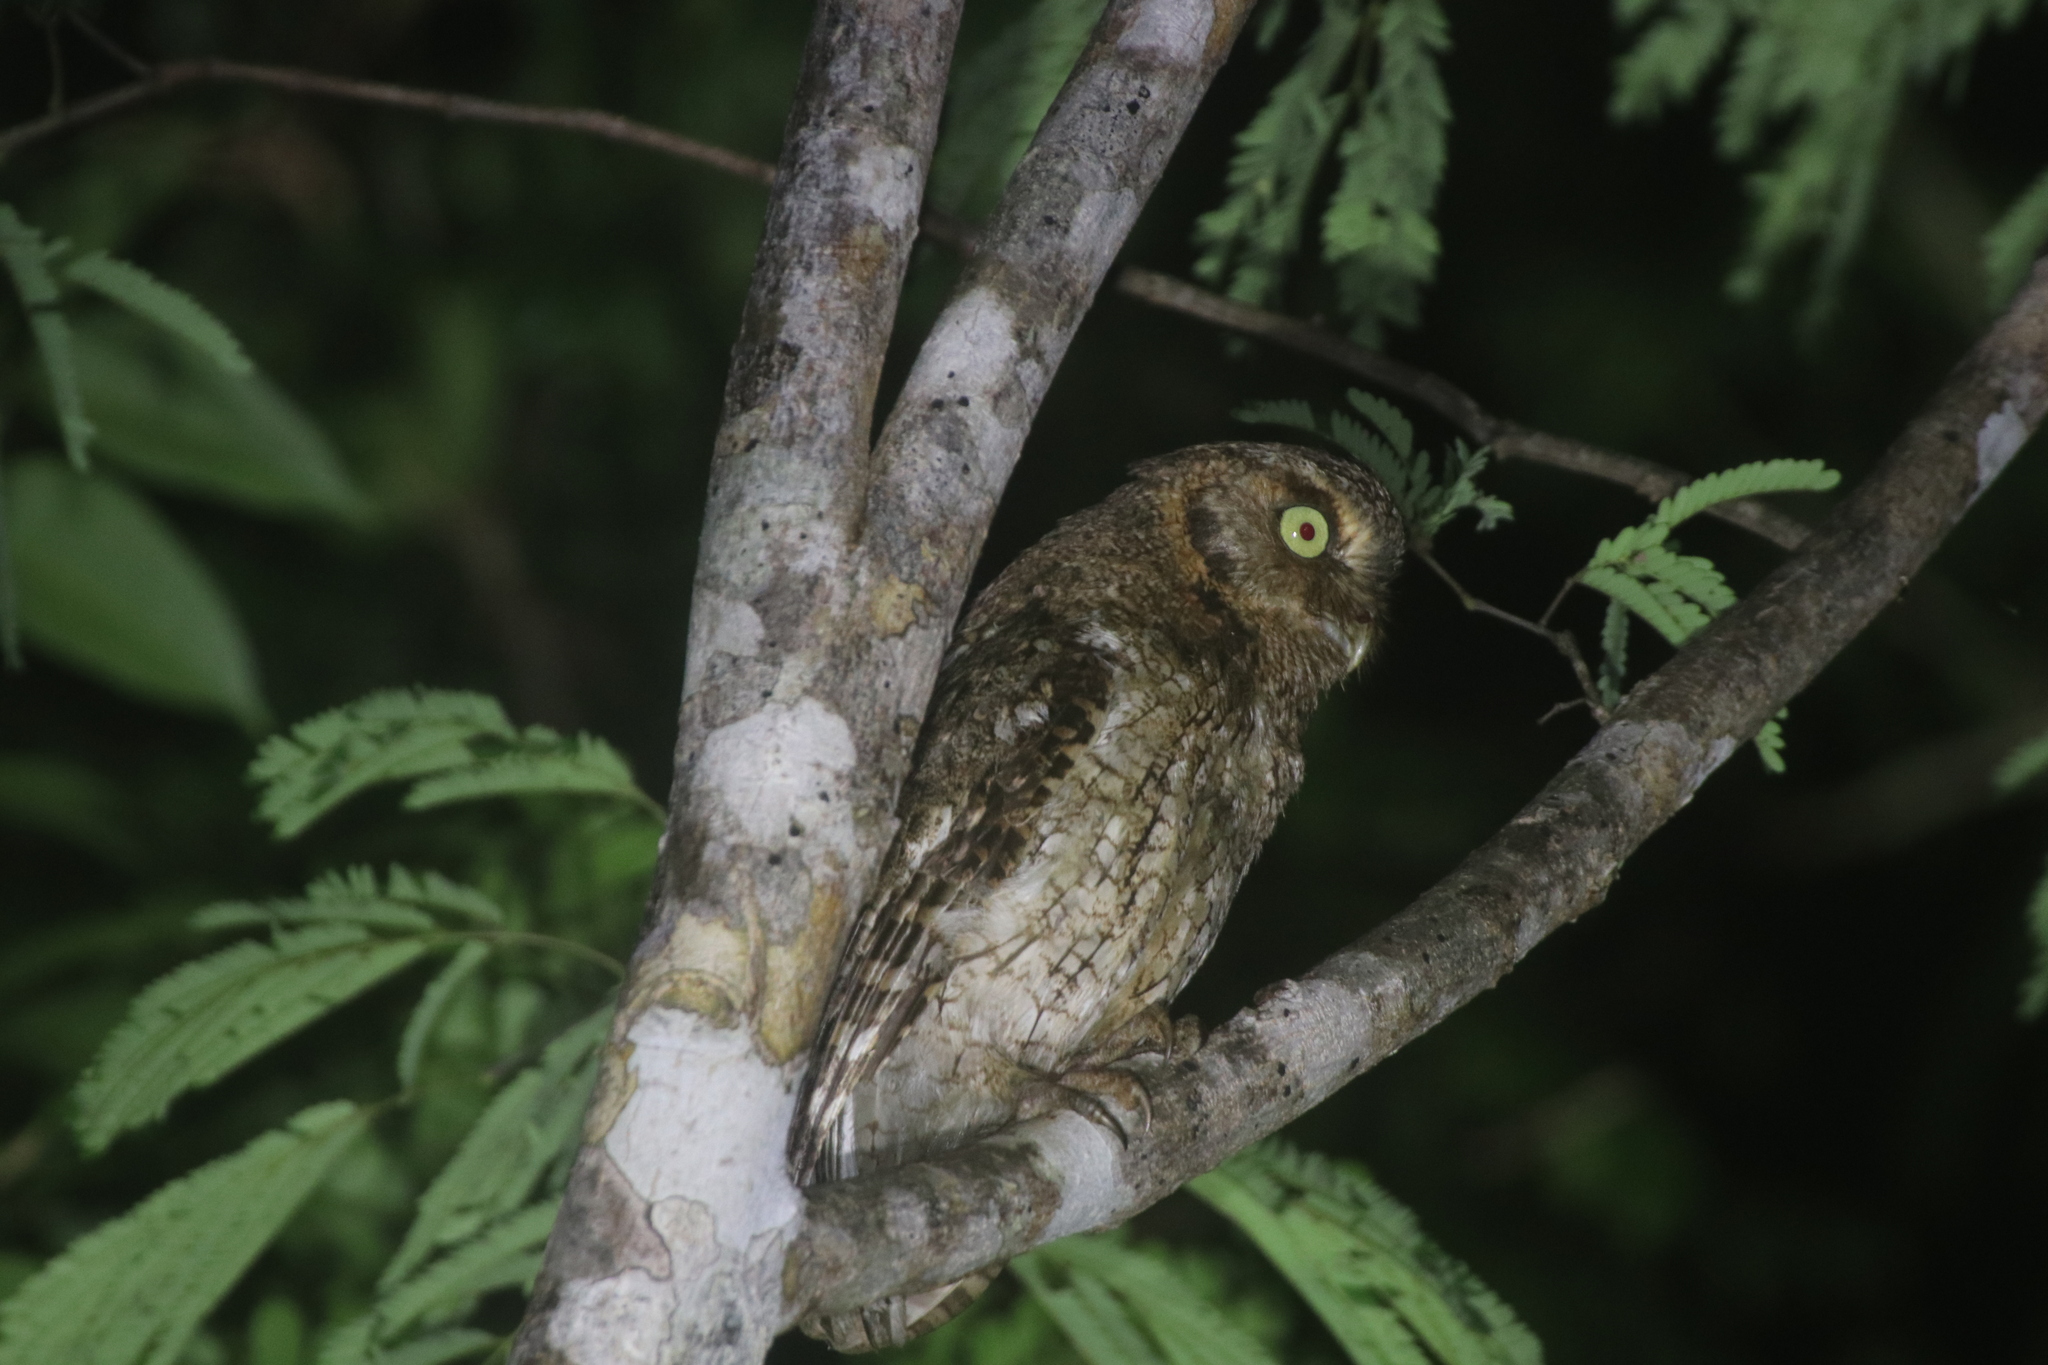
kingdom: Animalia
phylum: Chordata
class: Aves
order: Strigiformes
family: Strigidae
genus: Megascops
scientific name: Megascops guatemalae
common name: Vermiculated screech-owl
